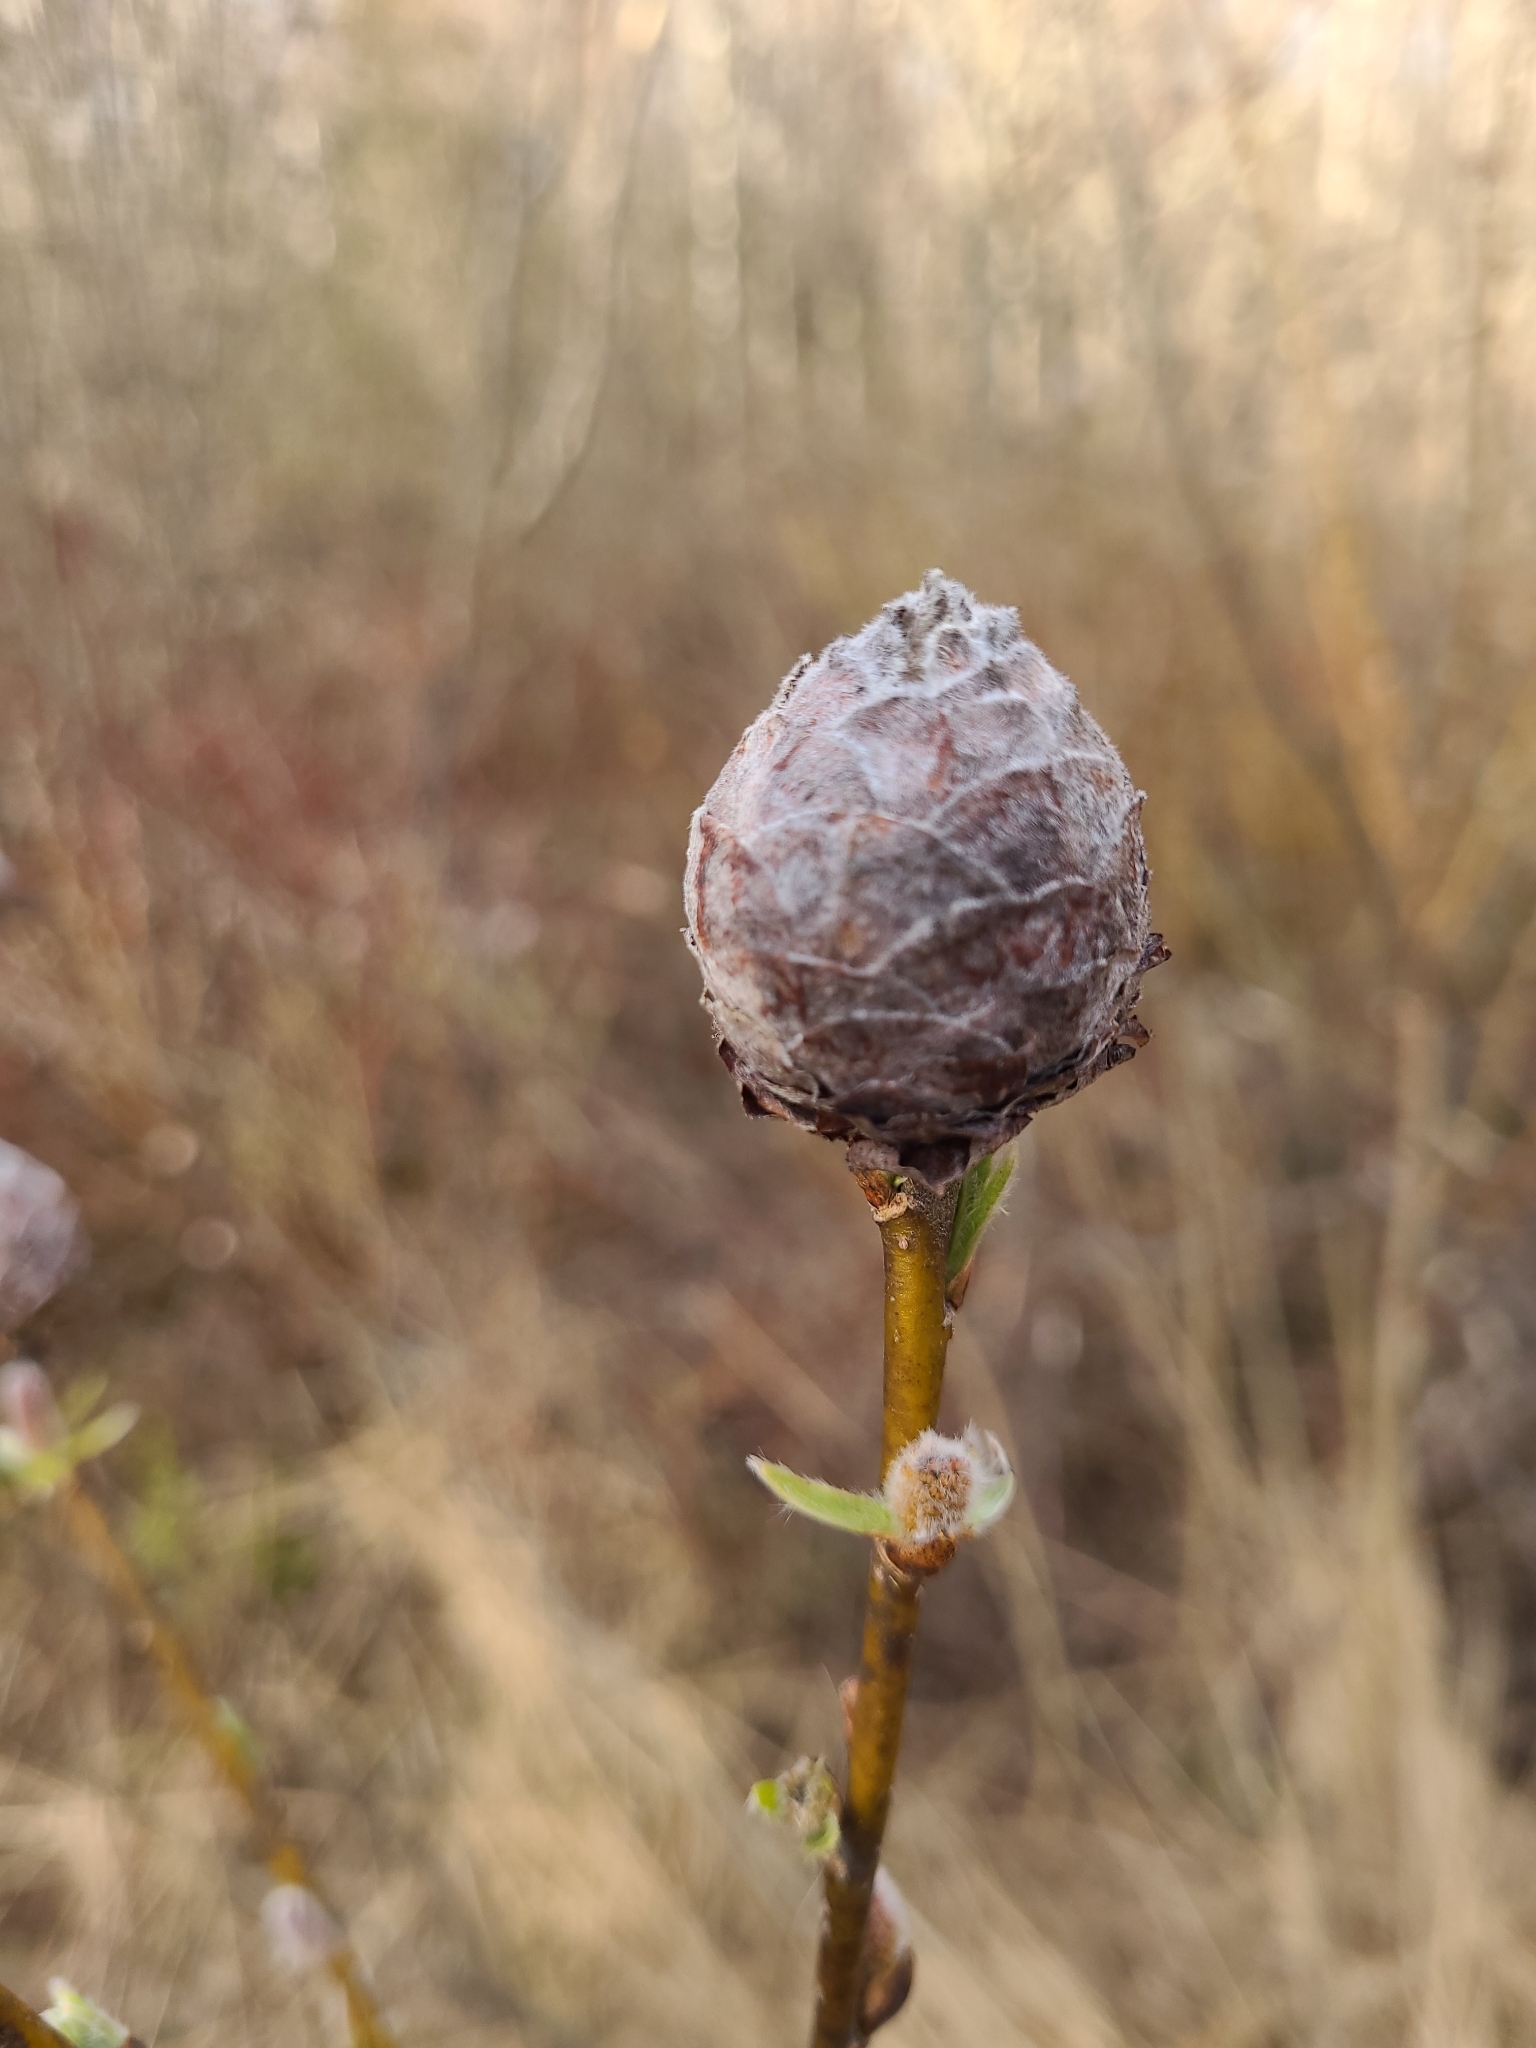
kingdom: Animalia
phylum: Arthropoda
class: Insecta
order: Diptera
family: Cecidomyiidae
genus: Rabdophaga
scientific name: Rabdophaga strobiloides
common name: Willow pinecone gall midge
